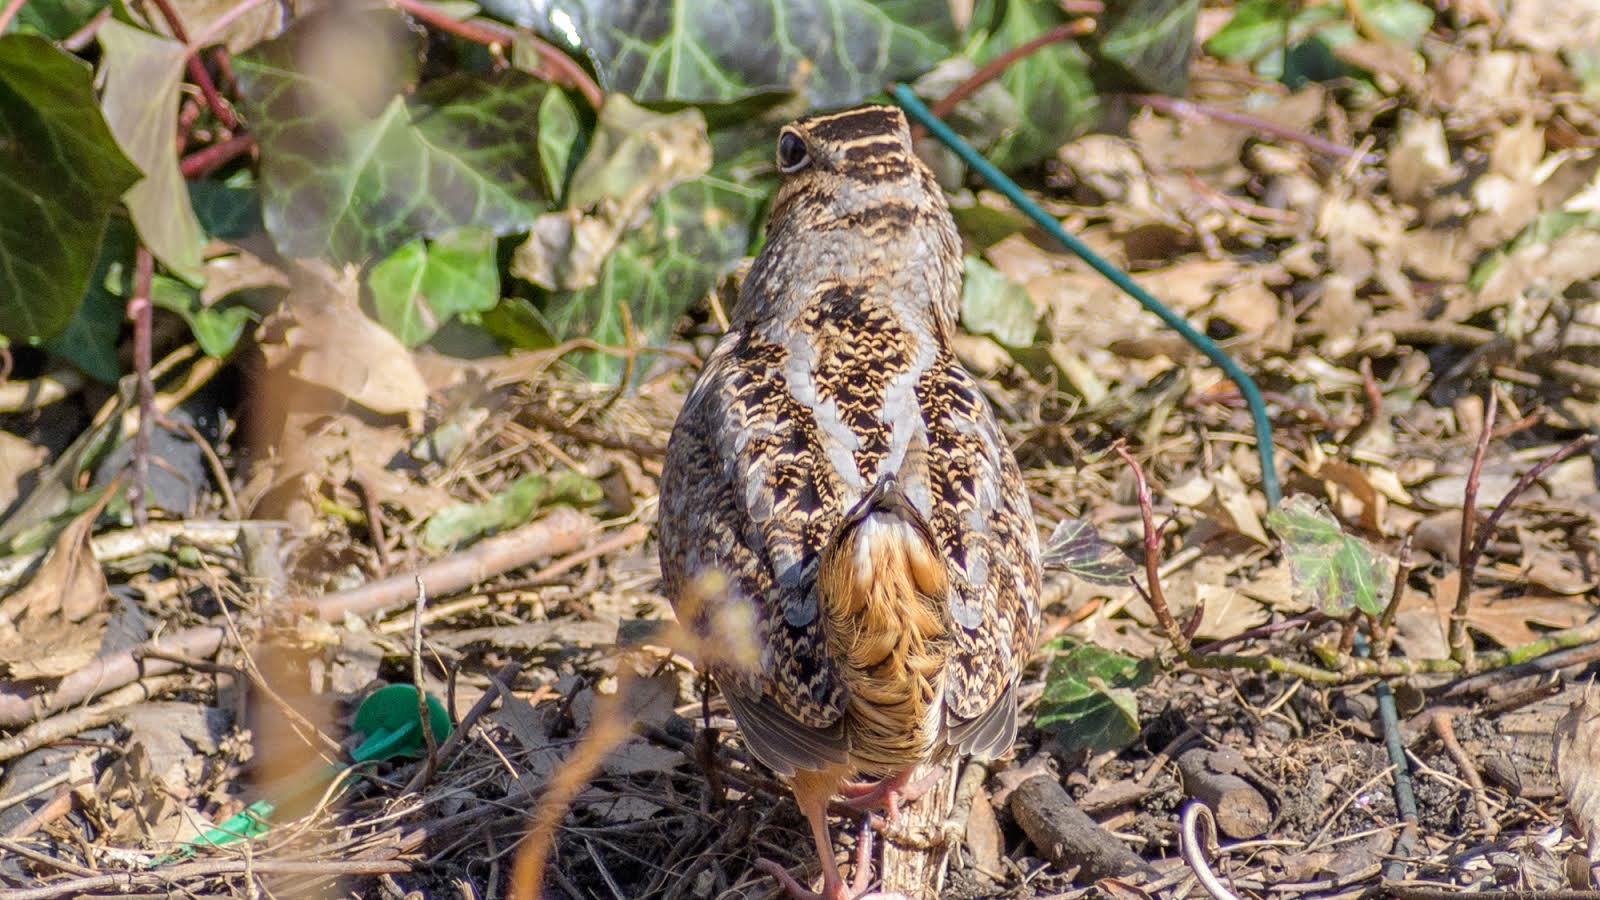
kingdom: Animalia
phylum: Chordata
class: Aves
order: Charadriiformes
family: Scolopacidae
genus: Scolopax
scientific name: Scolopax minor
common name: American woodcock
